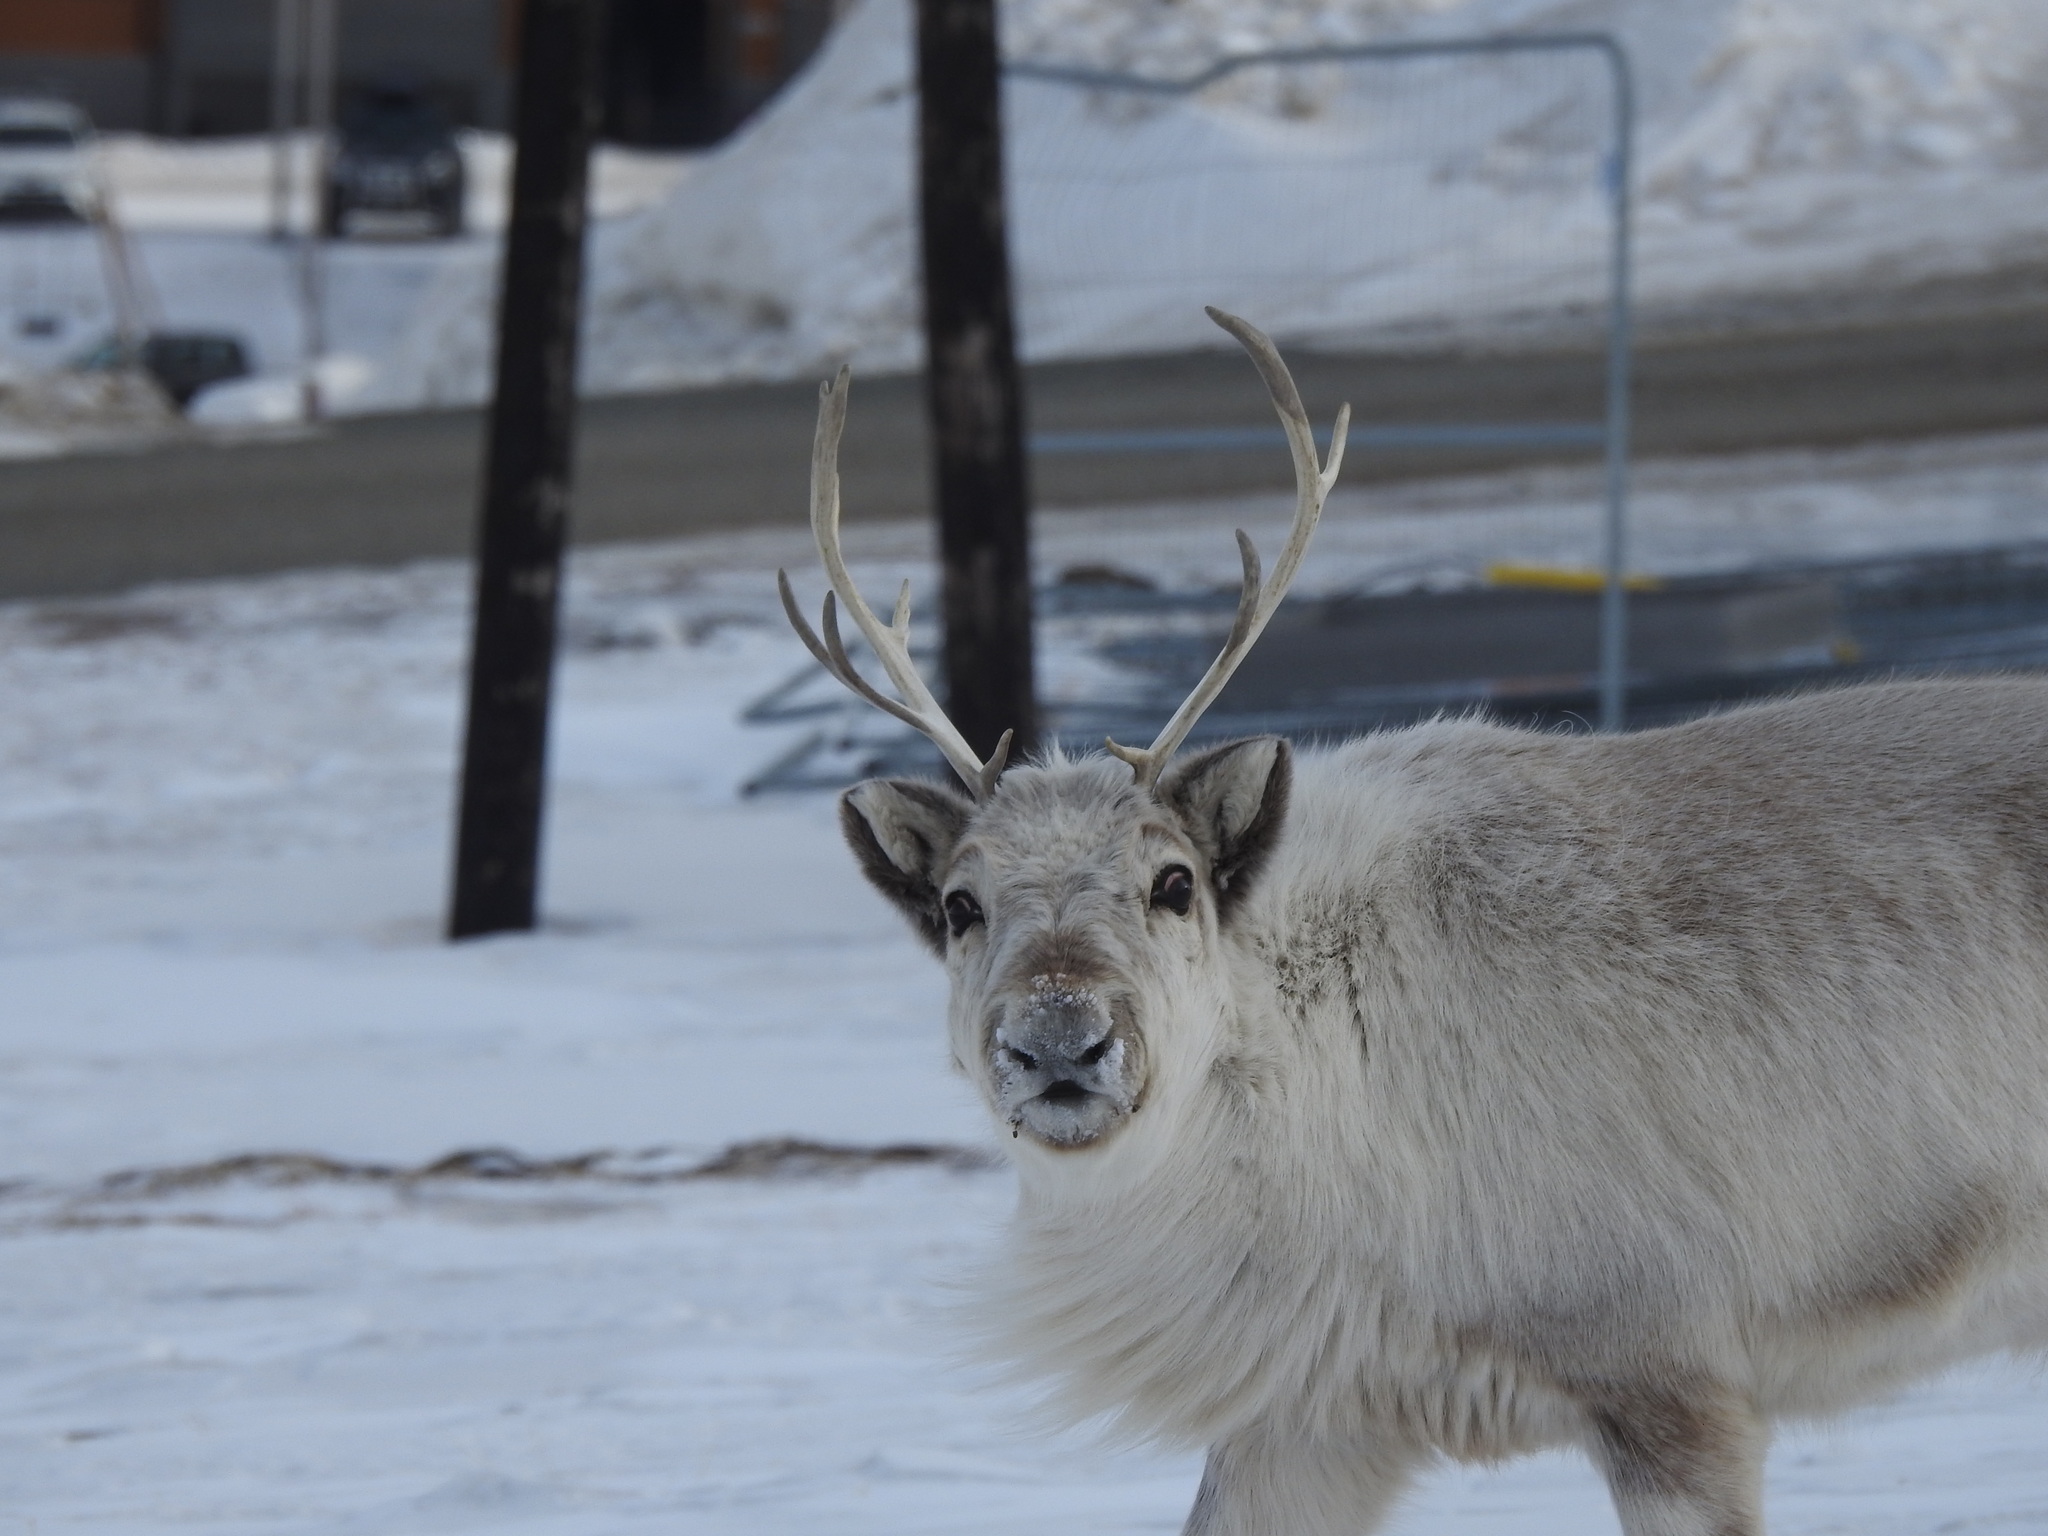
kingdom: Animalia
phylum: Chordata
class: Mammalia
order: Artiodactyla
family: Cervidae
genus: Rangifer
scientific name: Rangifer tarandus
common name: Reindeer
